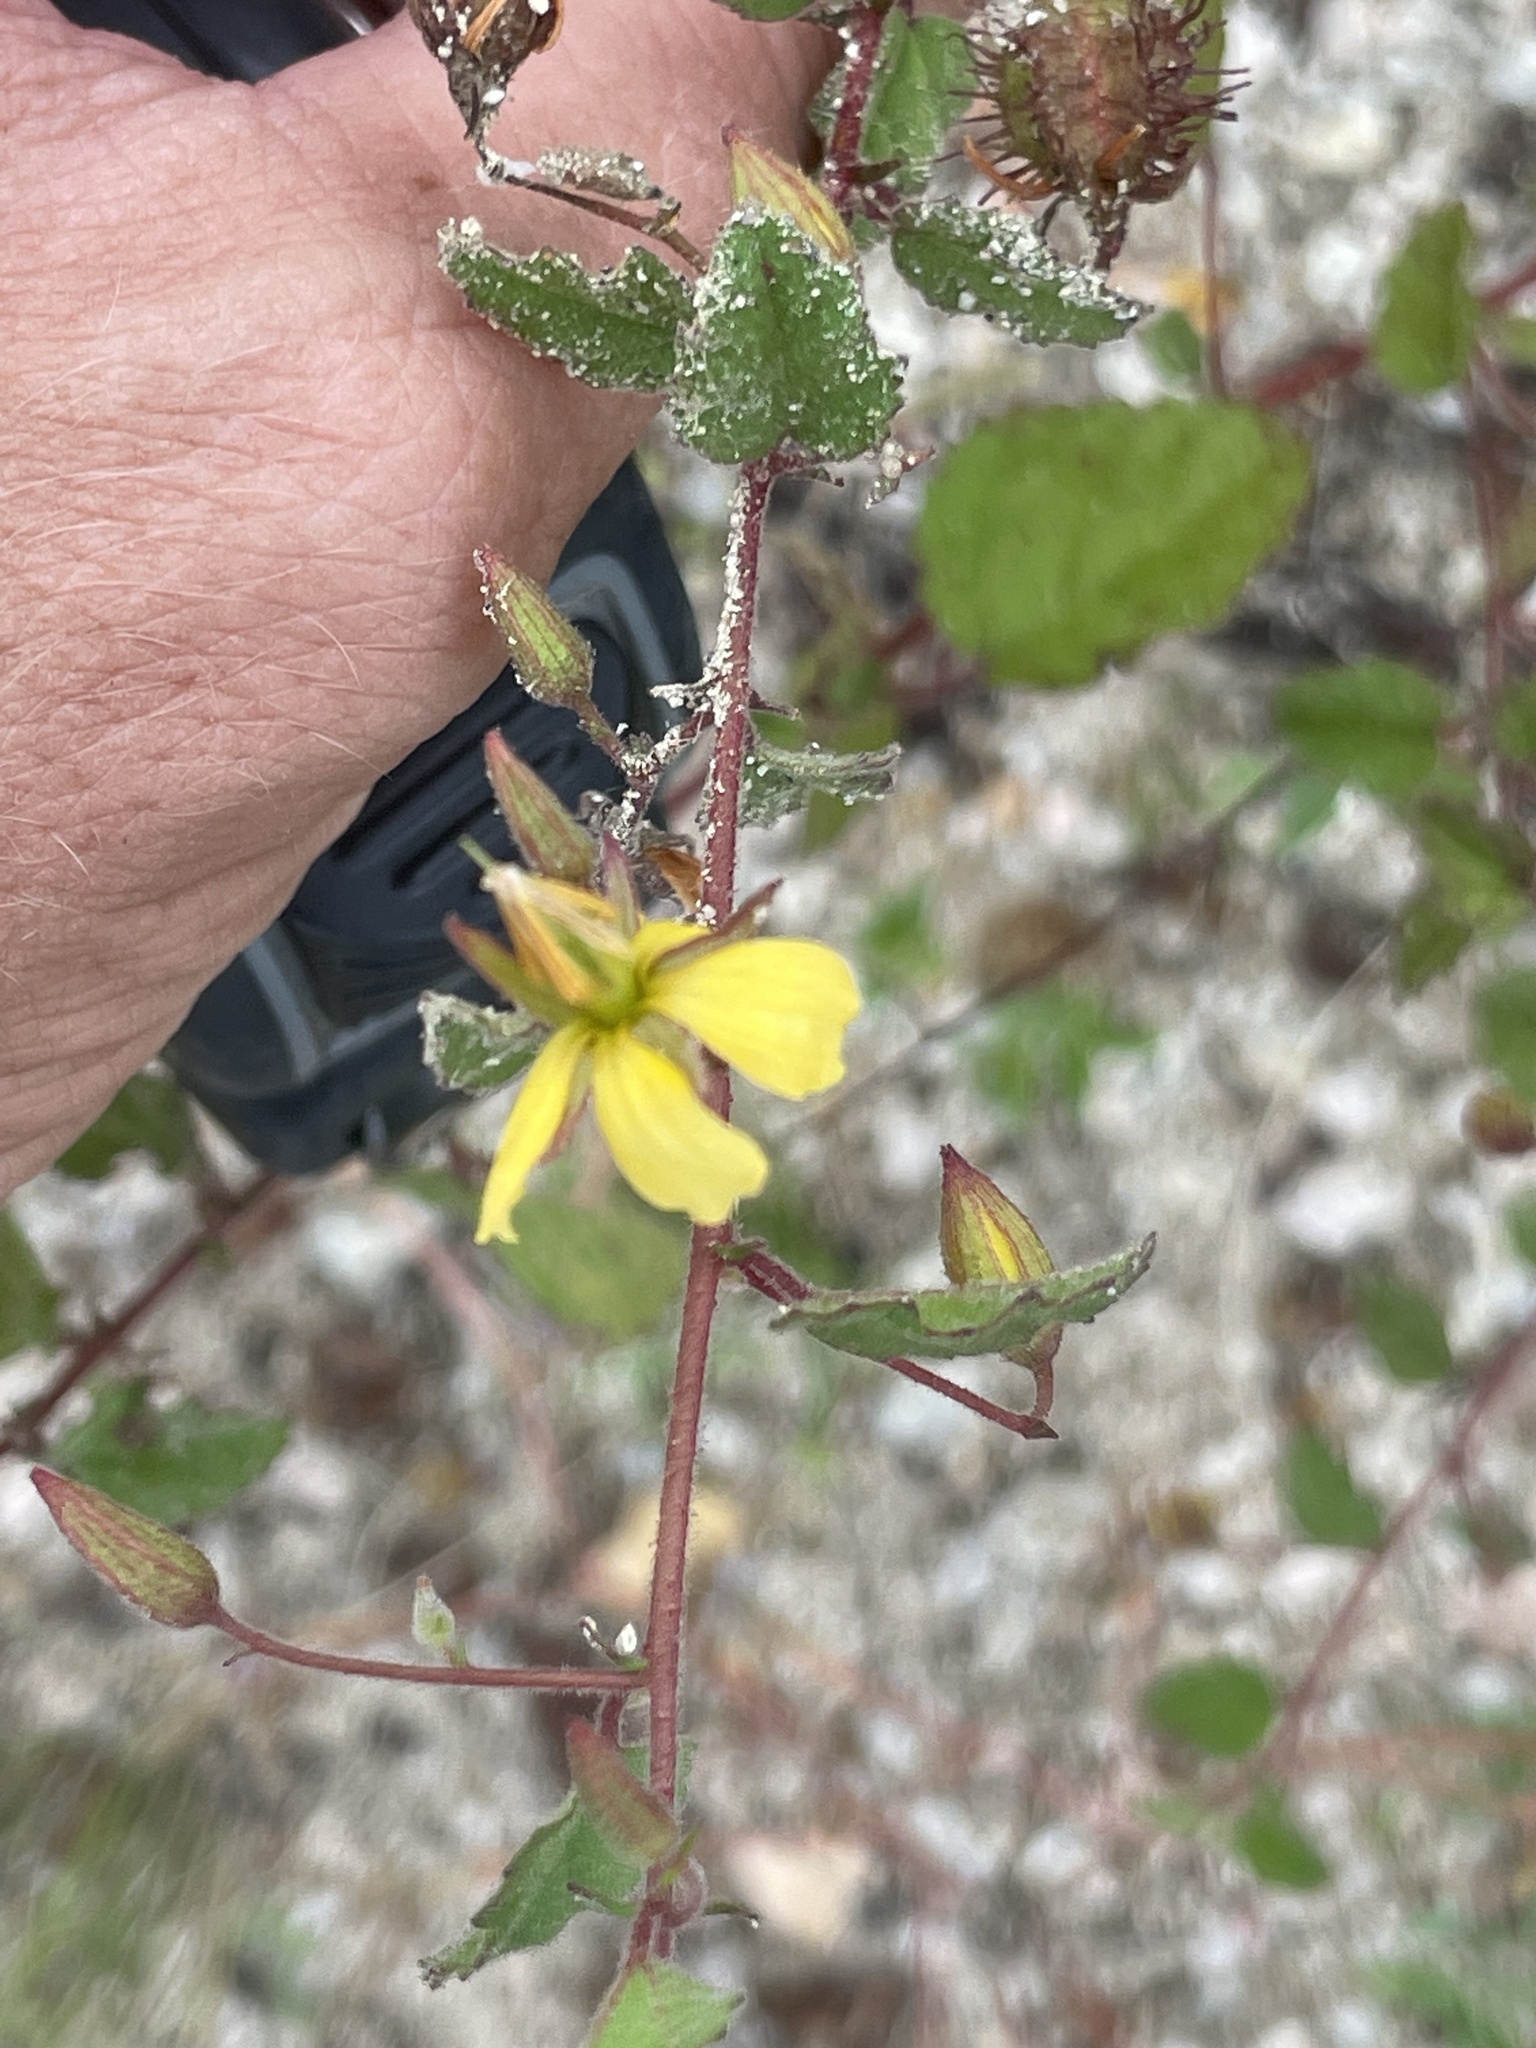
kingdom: Plantae
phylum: Tracheophyta
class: Magnoliopsida
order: Malvales
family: Malvaceae
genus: Hermannia
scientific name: Hermannia palmeri
